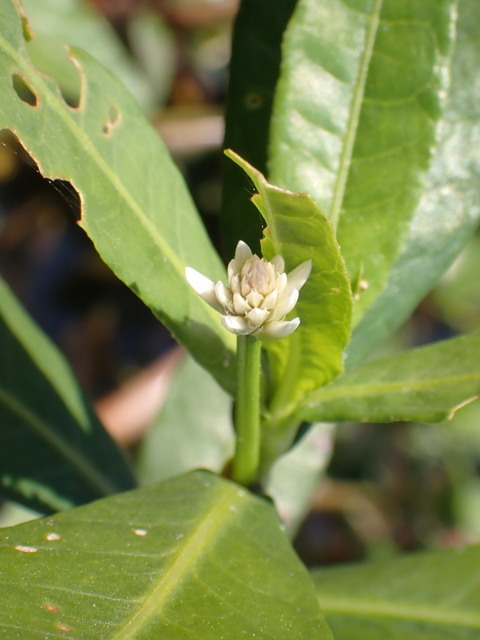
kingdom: Plantae
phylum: Tracheophyta
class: Magnoliopsida
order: Caryophyllales
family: Amaranthaceae
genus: Alternanthera
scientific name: Alternanthera philoxeroides
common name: Alligatorweed
